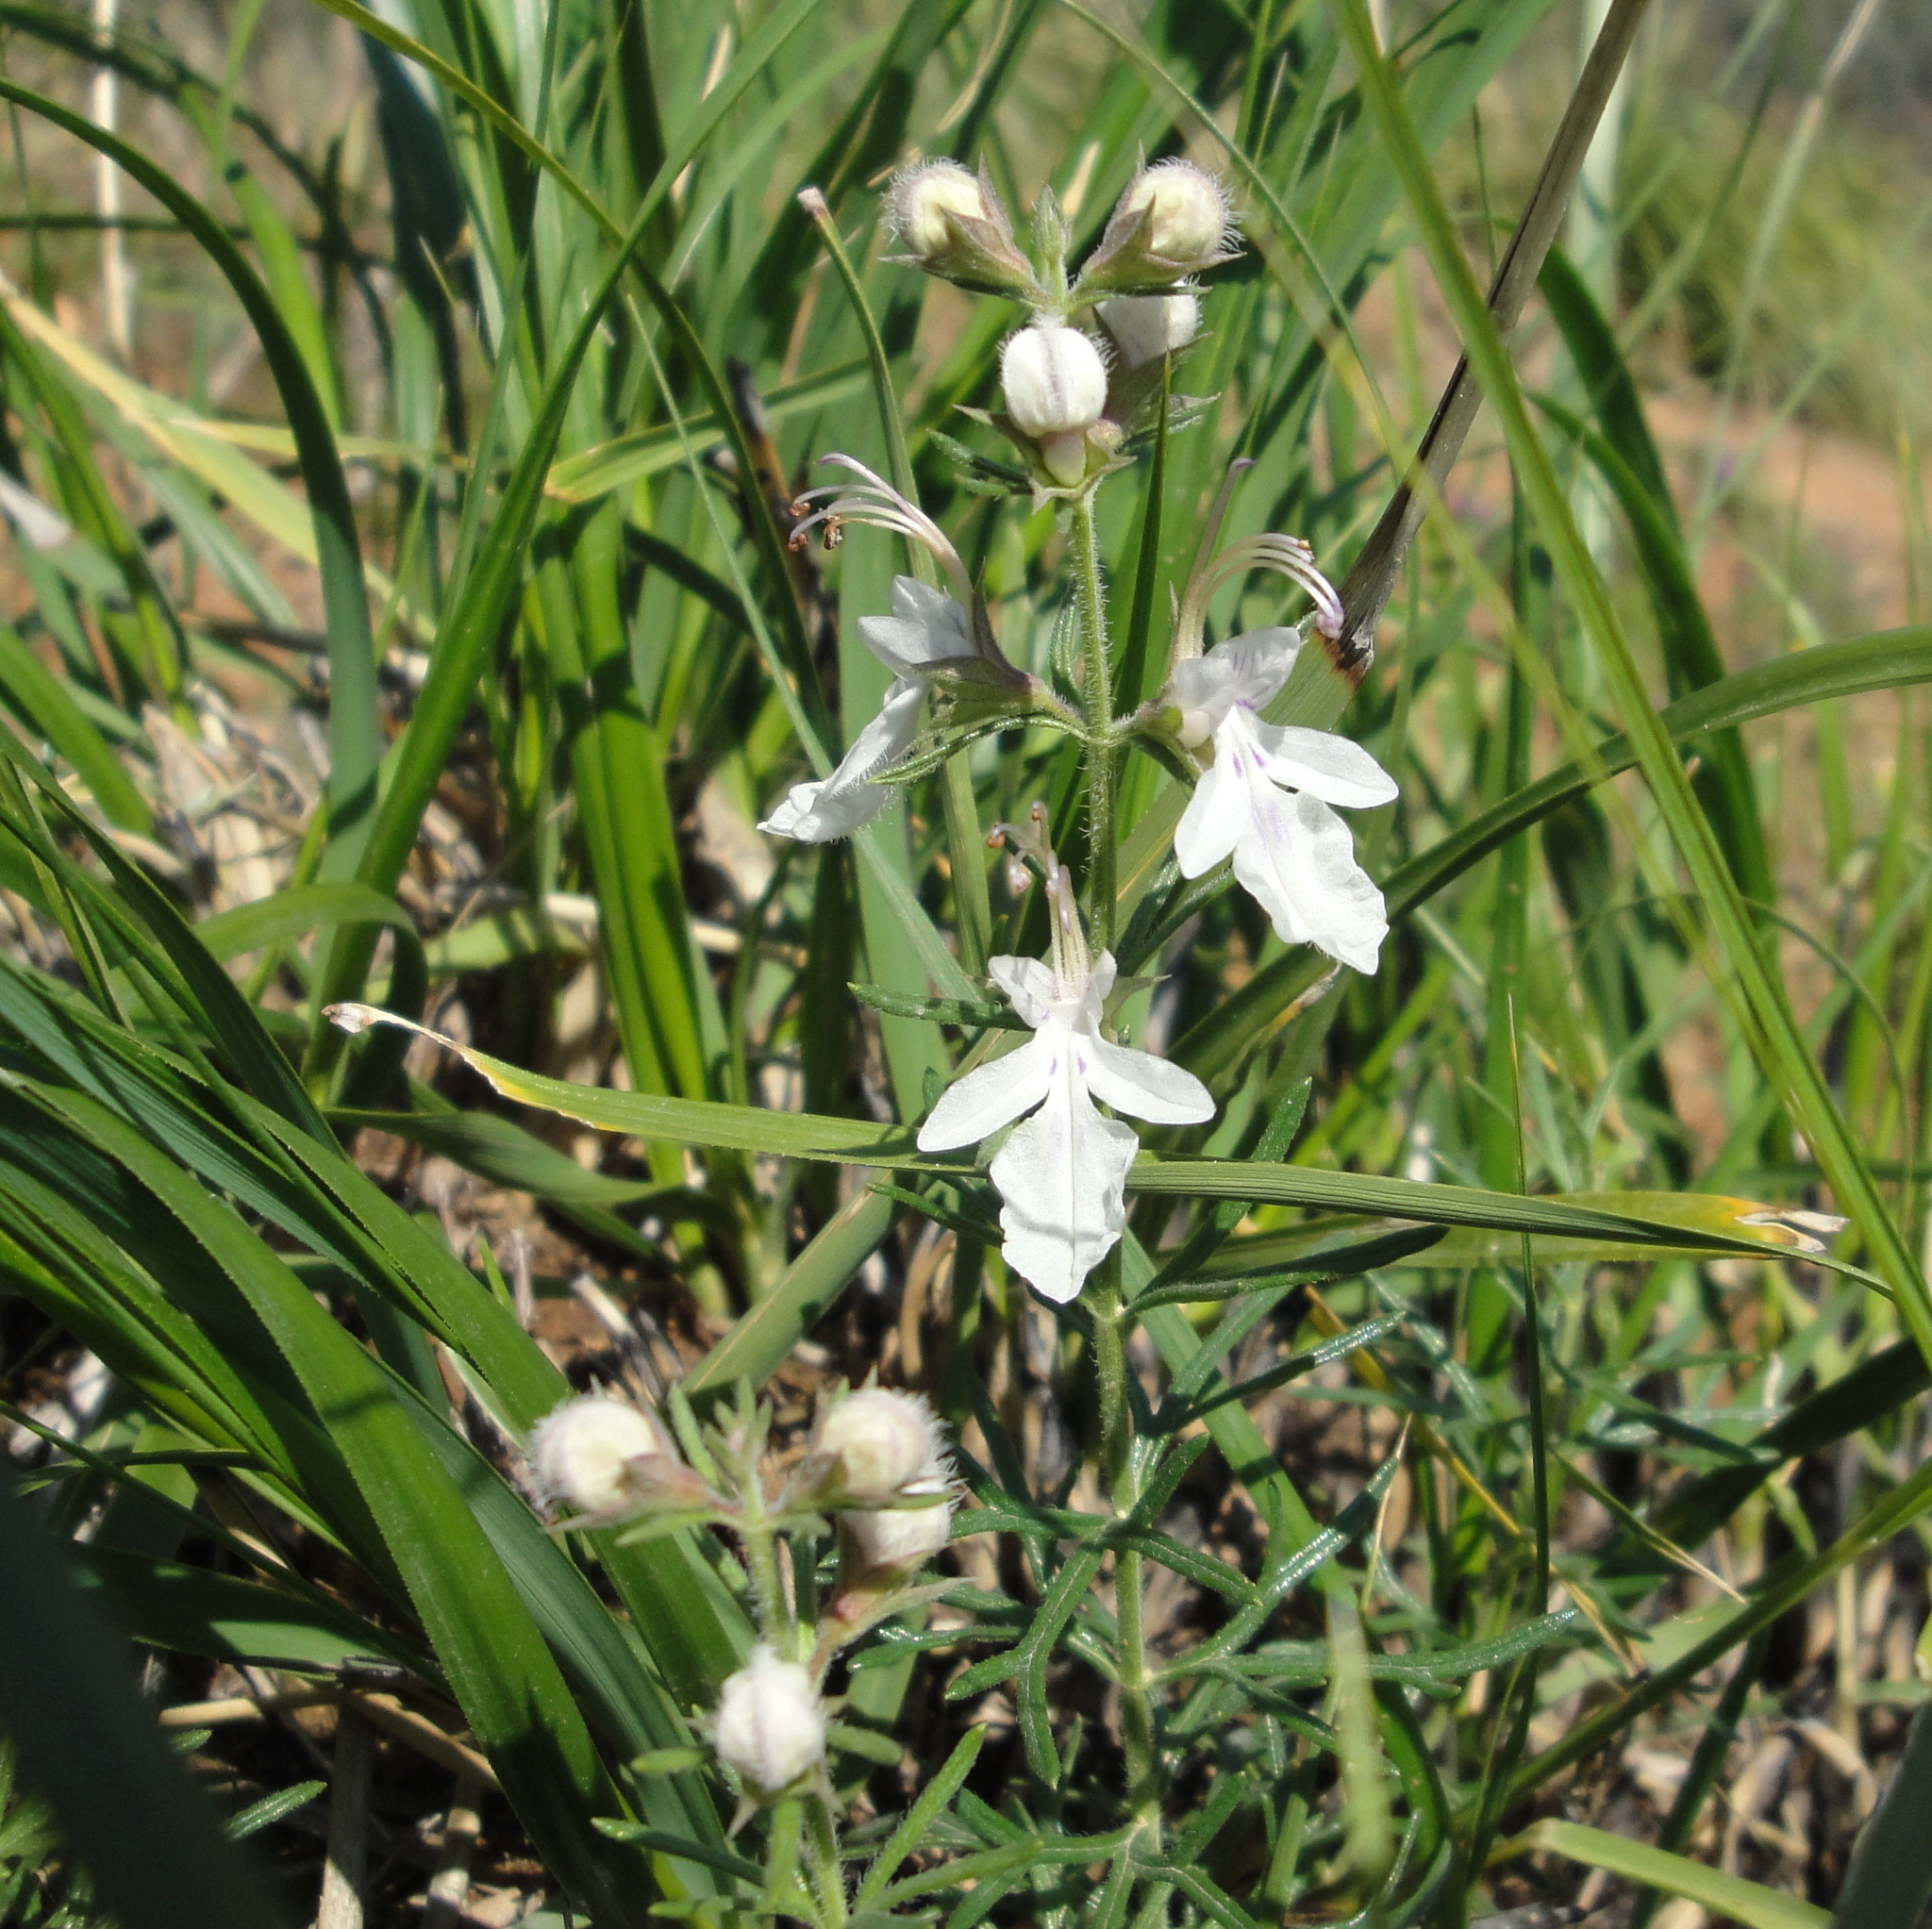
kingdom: Plantae
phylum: Tracheophyta
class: Magnoliopsida
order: Lamiales
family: Lamiaceae
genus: Teucrium
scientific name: Teucrium pseudochamaepitys
